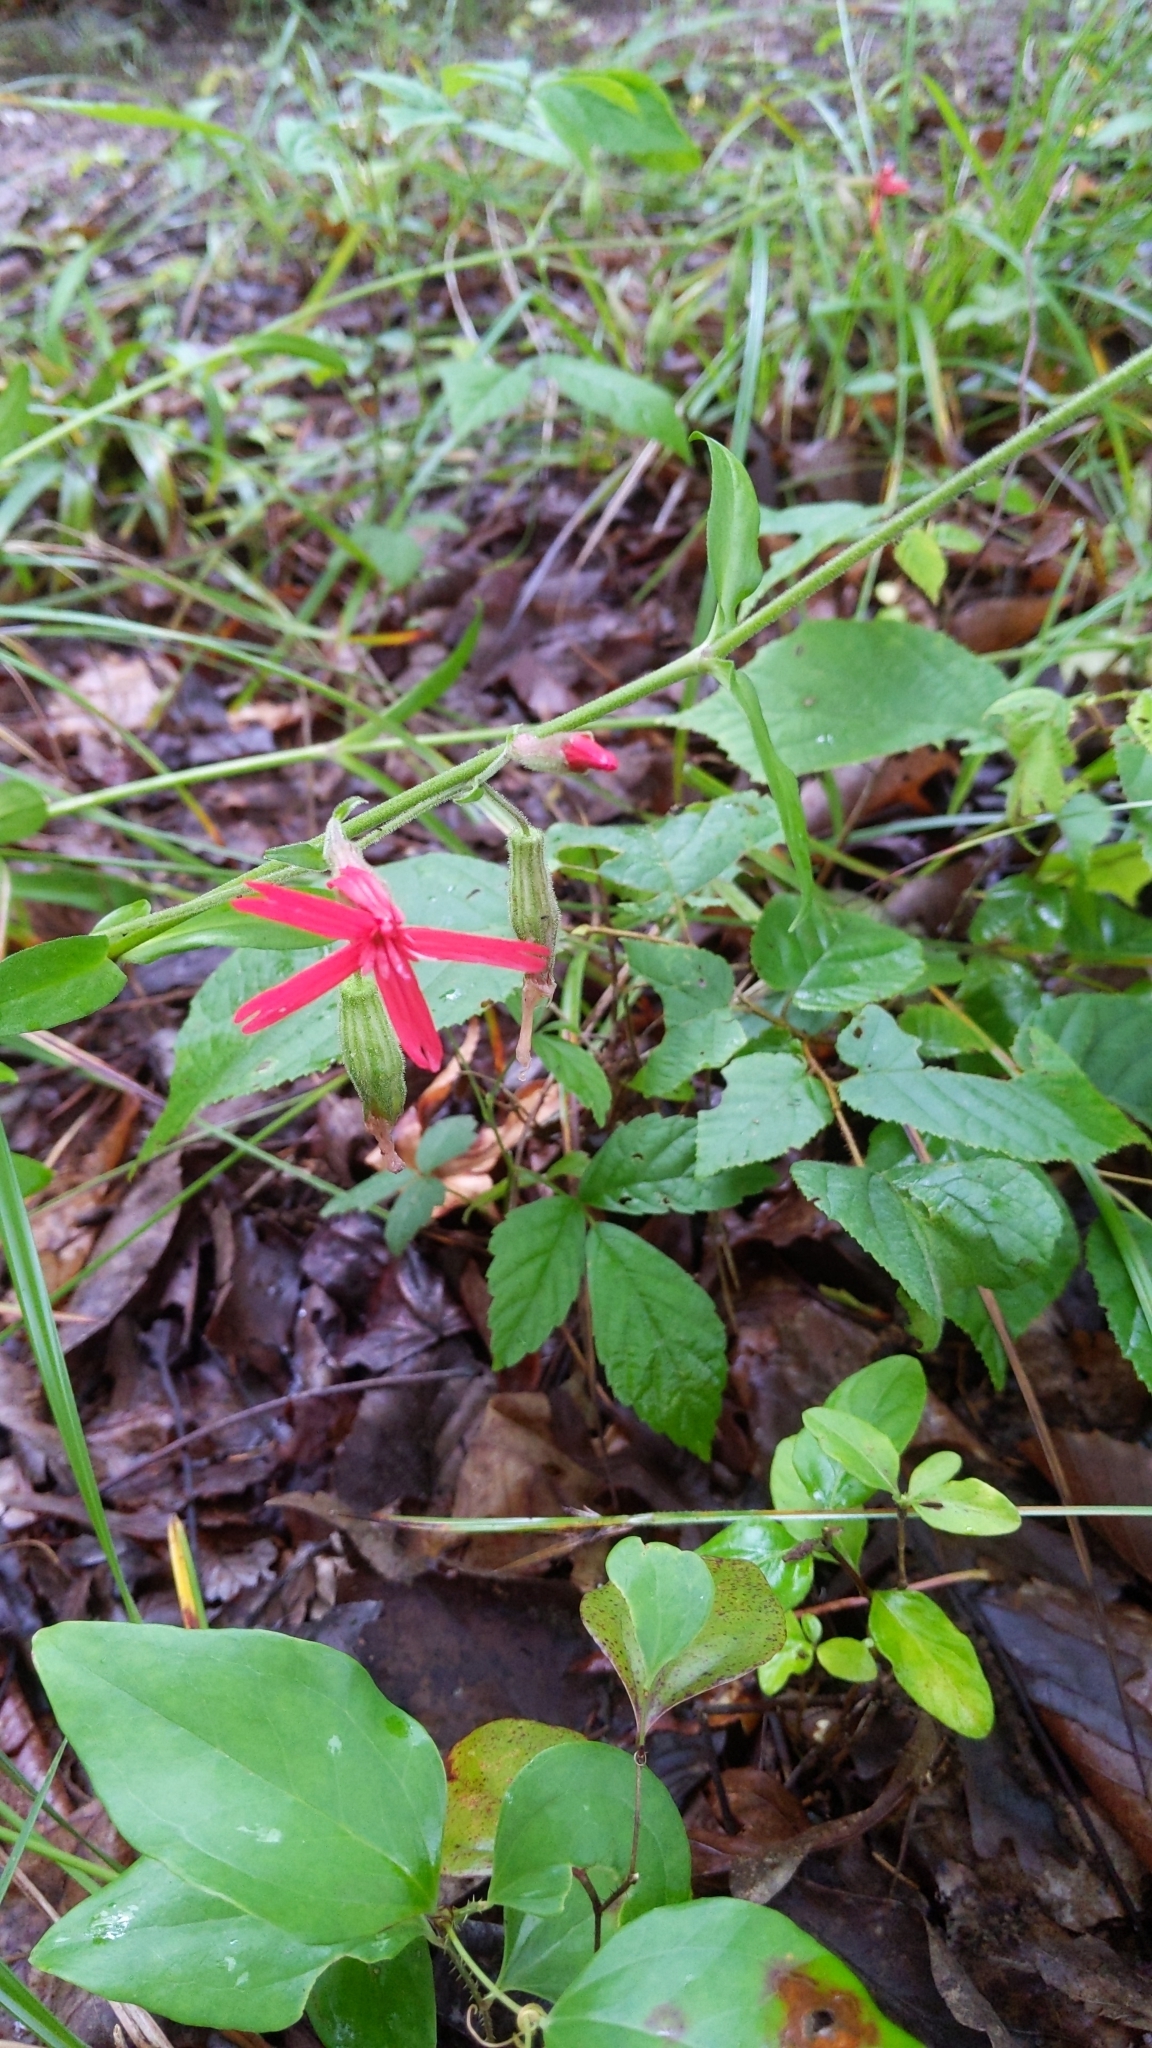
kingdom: Plantae
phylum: Tracheophyta
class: Magnoliopsida
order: Caryophyllales
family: Caryophyllaceae
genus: Silene
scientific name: Silene virginica
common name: Fire-pink
